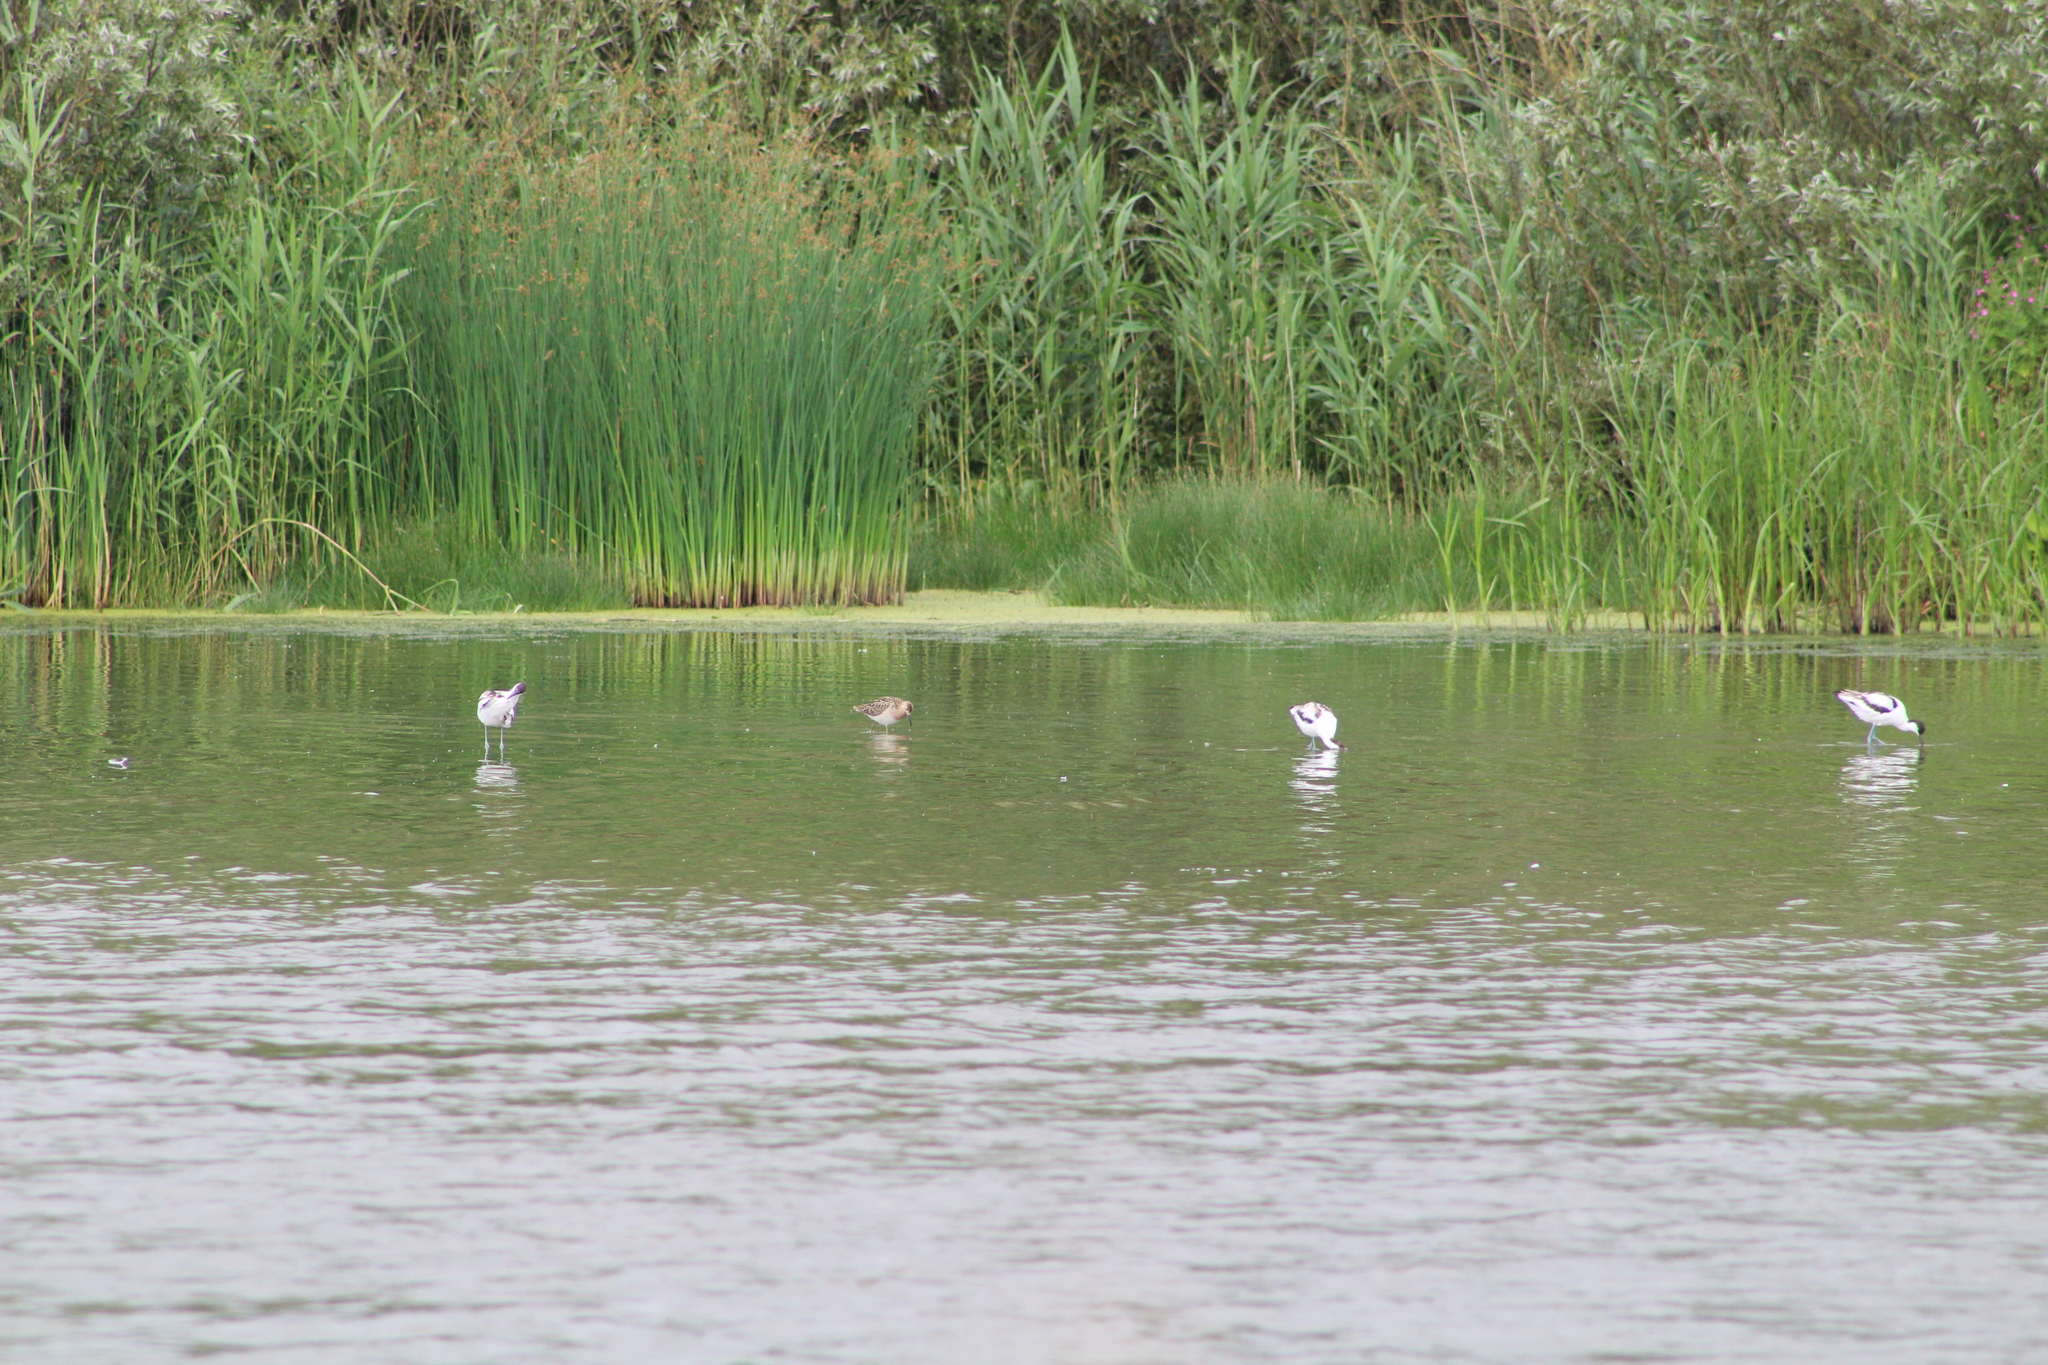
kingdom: Animalia
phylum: Chordata
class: Aves
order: Charadriiformes
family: Scolopacidae
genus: Calidris
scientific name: Calidris pugnax
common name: Ruff
